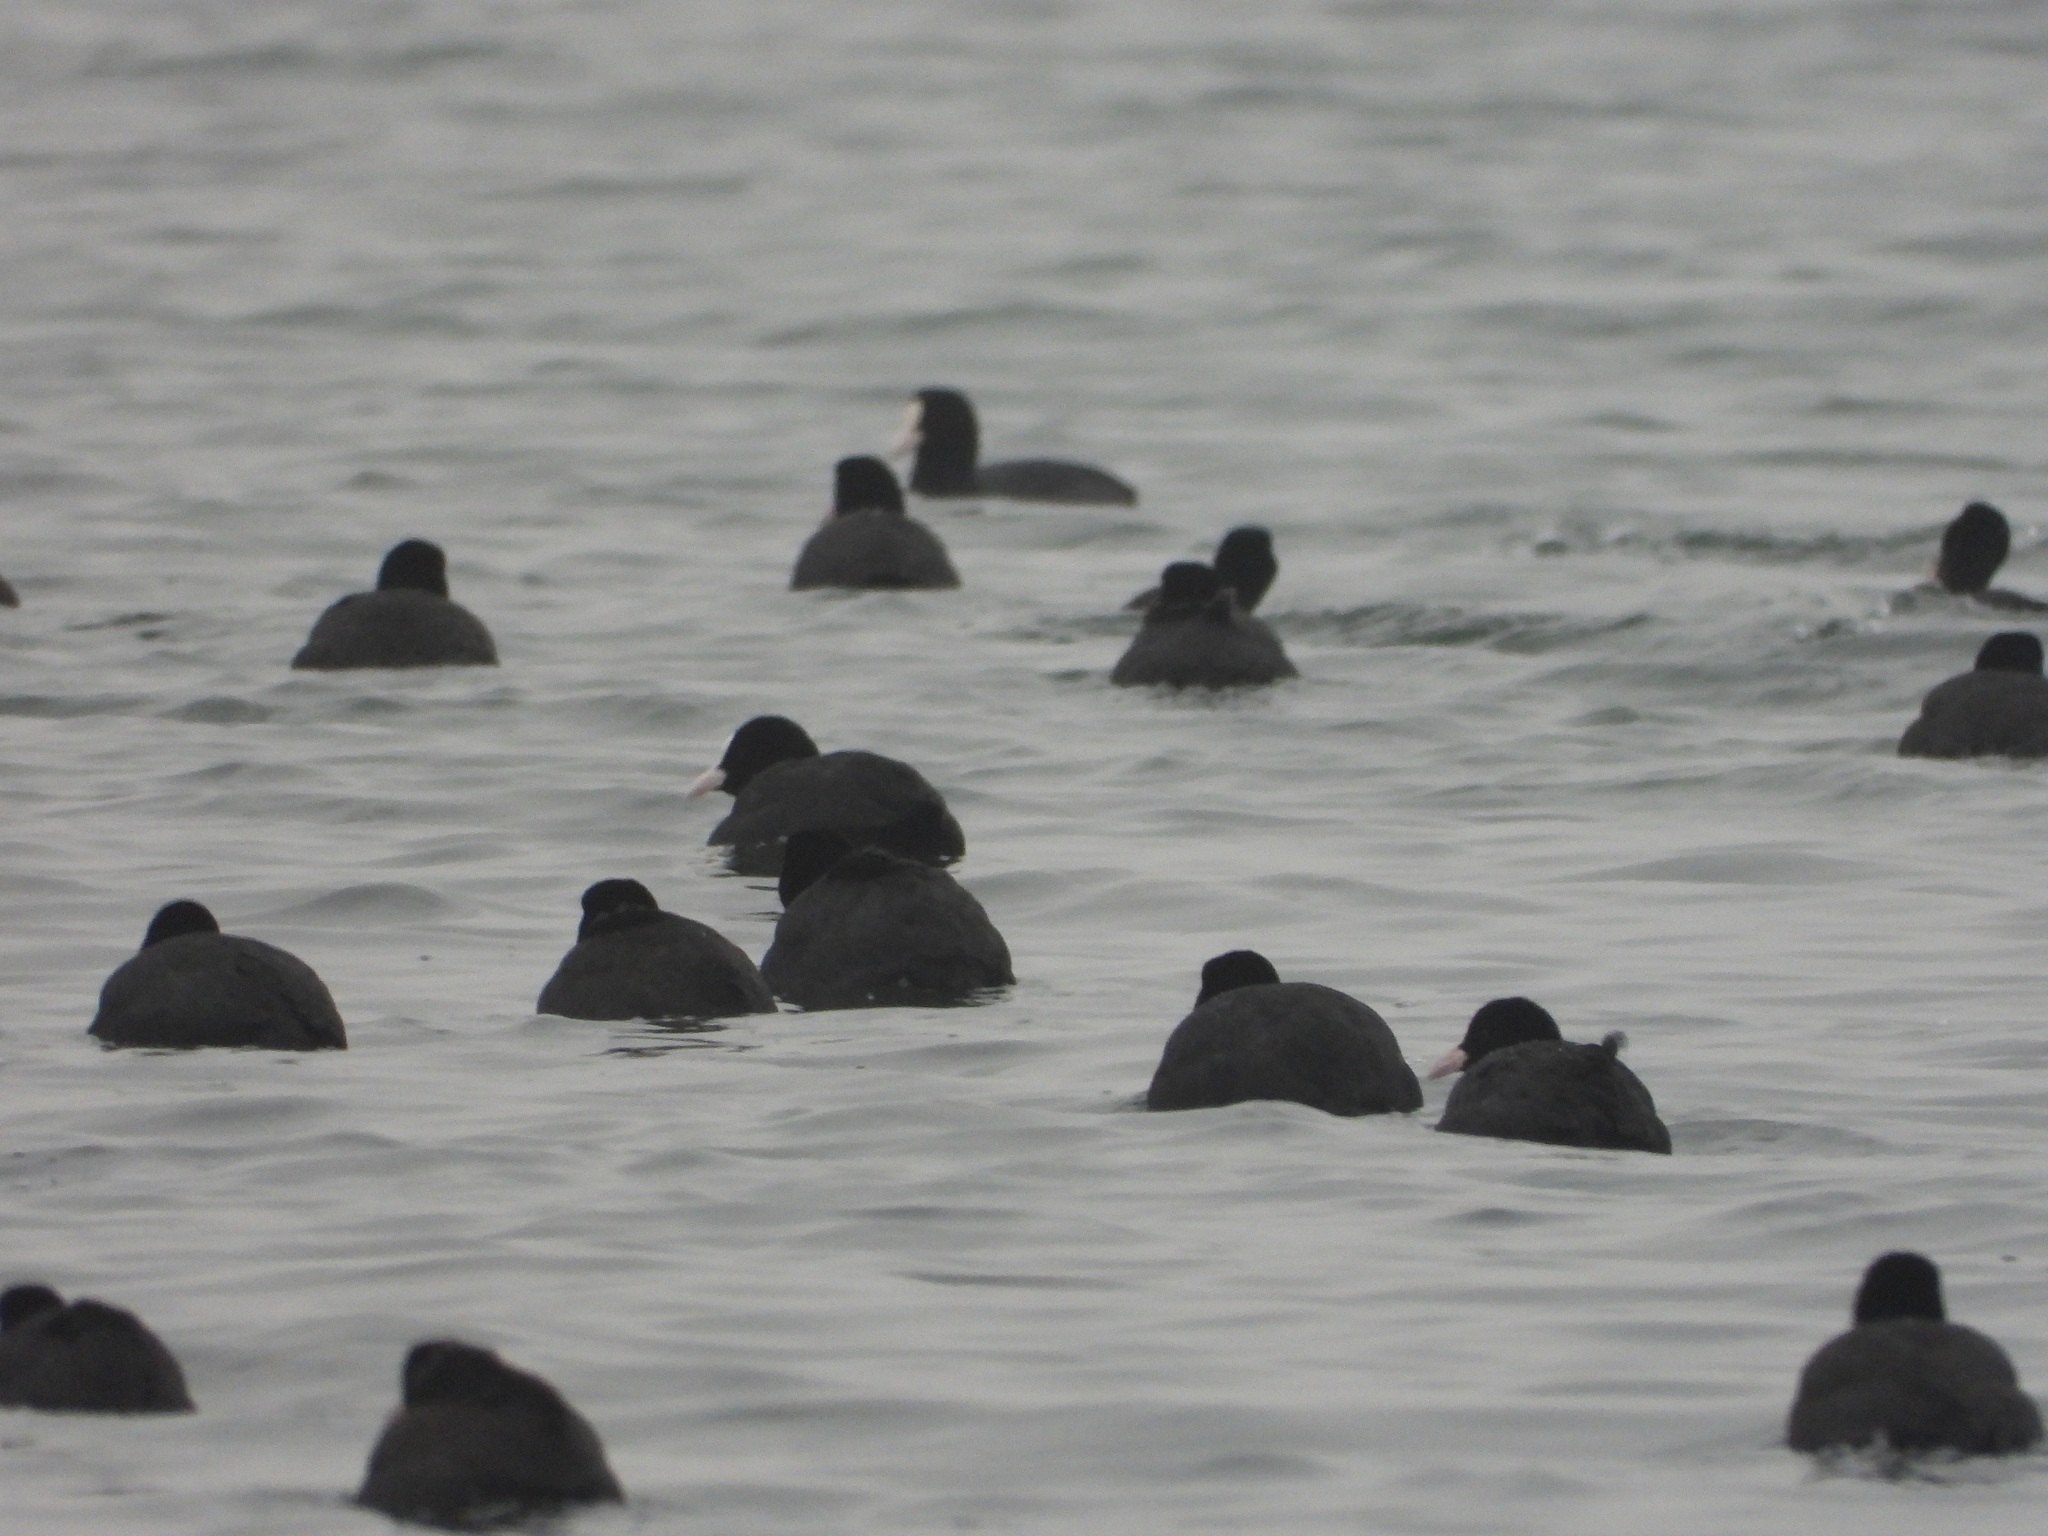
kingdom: Animalia
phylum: Chordata
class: Aves
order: Gruiformes
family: Rallidae
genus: Fulica
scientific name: Fulica atra
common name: Eurasian coot
